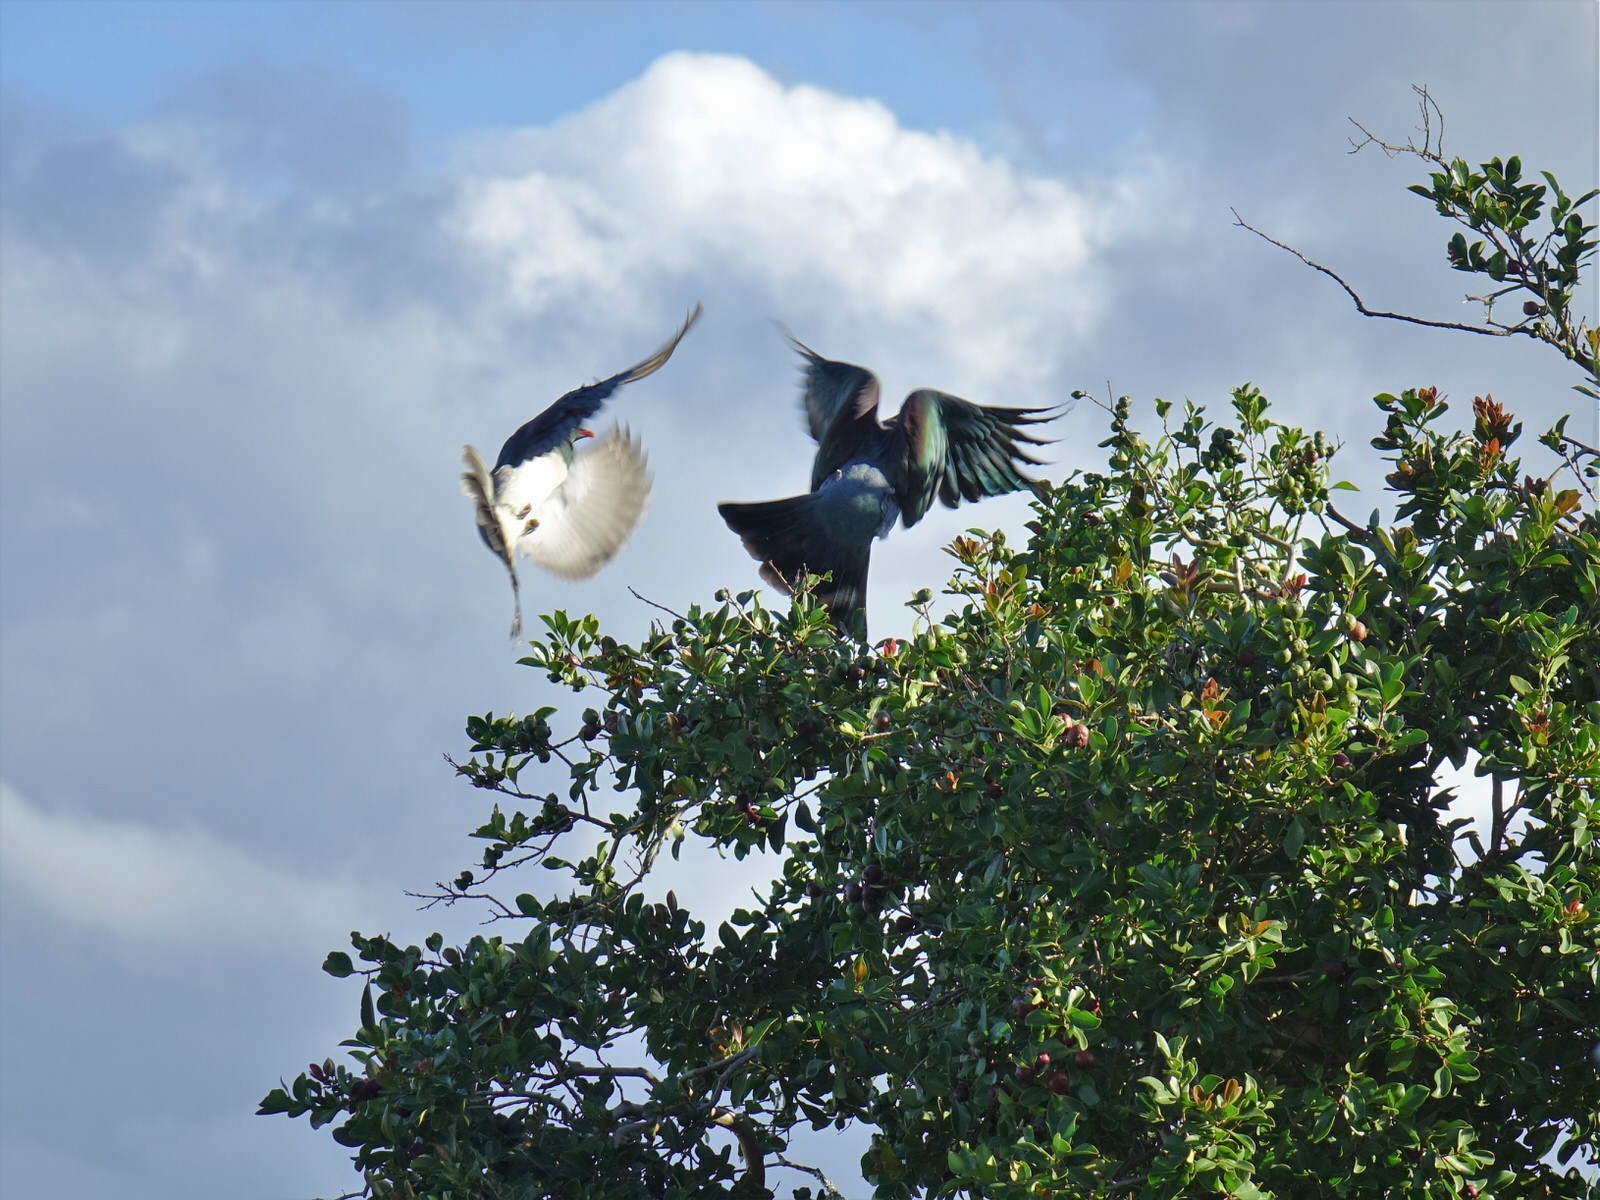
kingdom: Animalia
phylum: Chordata
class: Aves
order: Columbiformes
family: Columbidae
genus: Hemiphaga
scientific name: Hemiphaga novaeseelandiae
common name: New zealand pigeon
